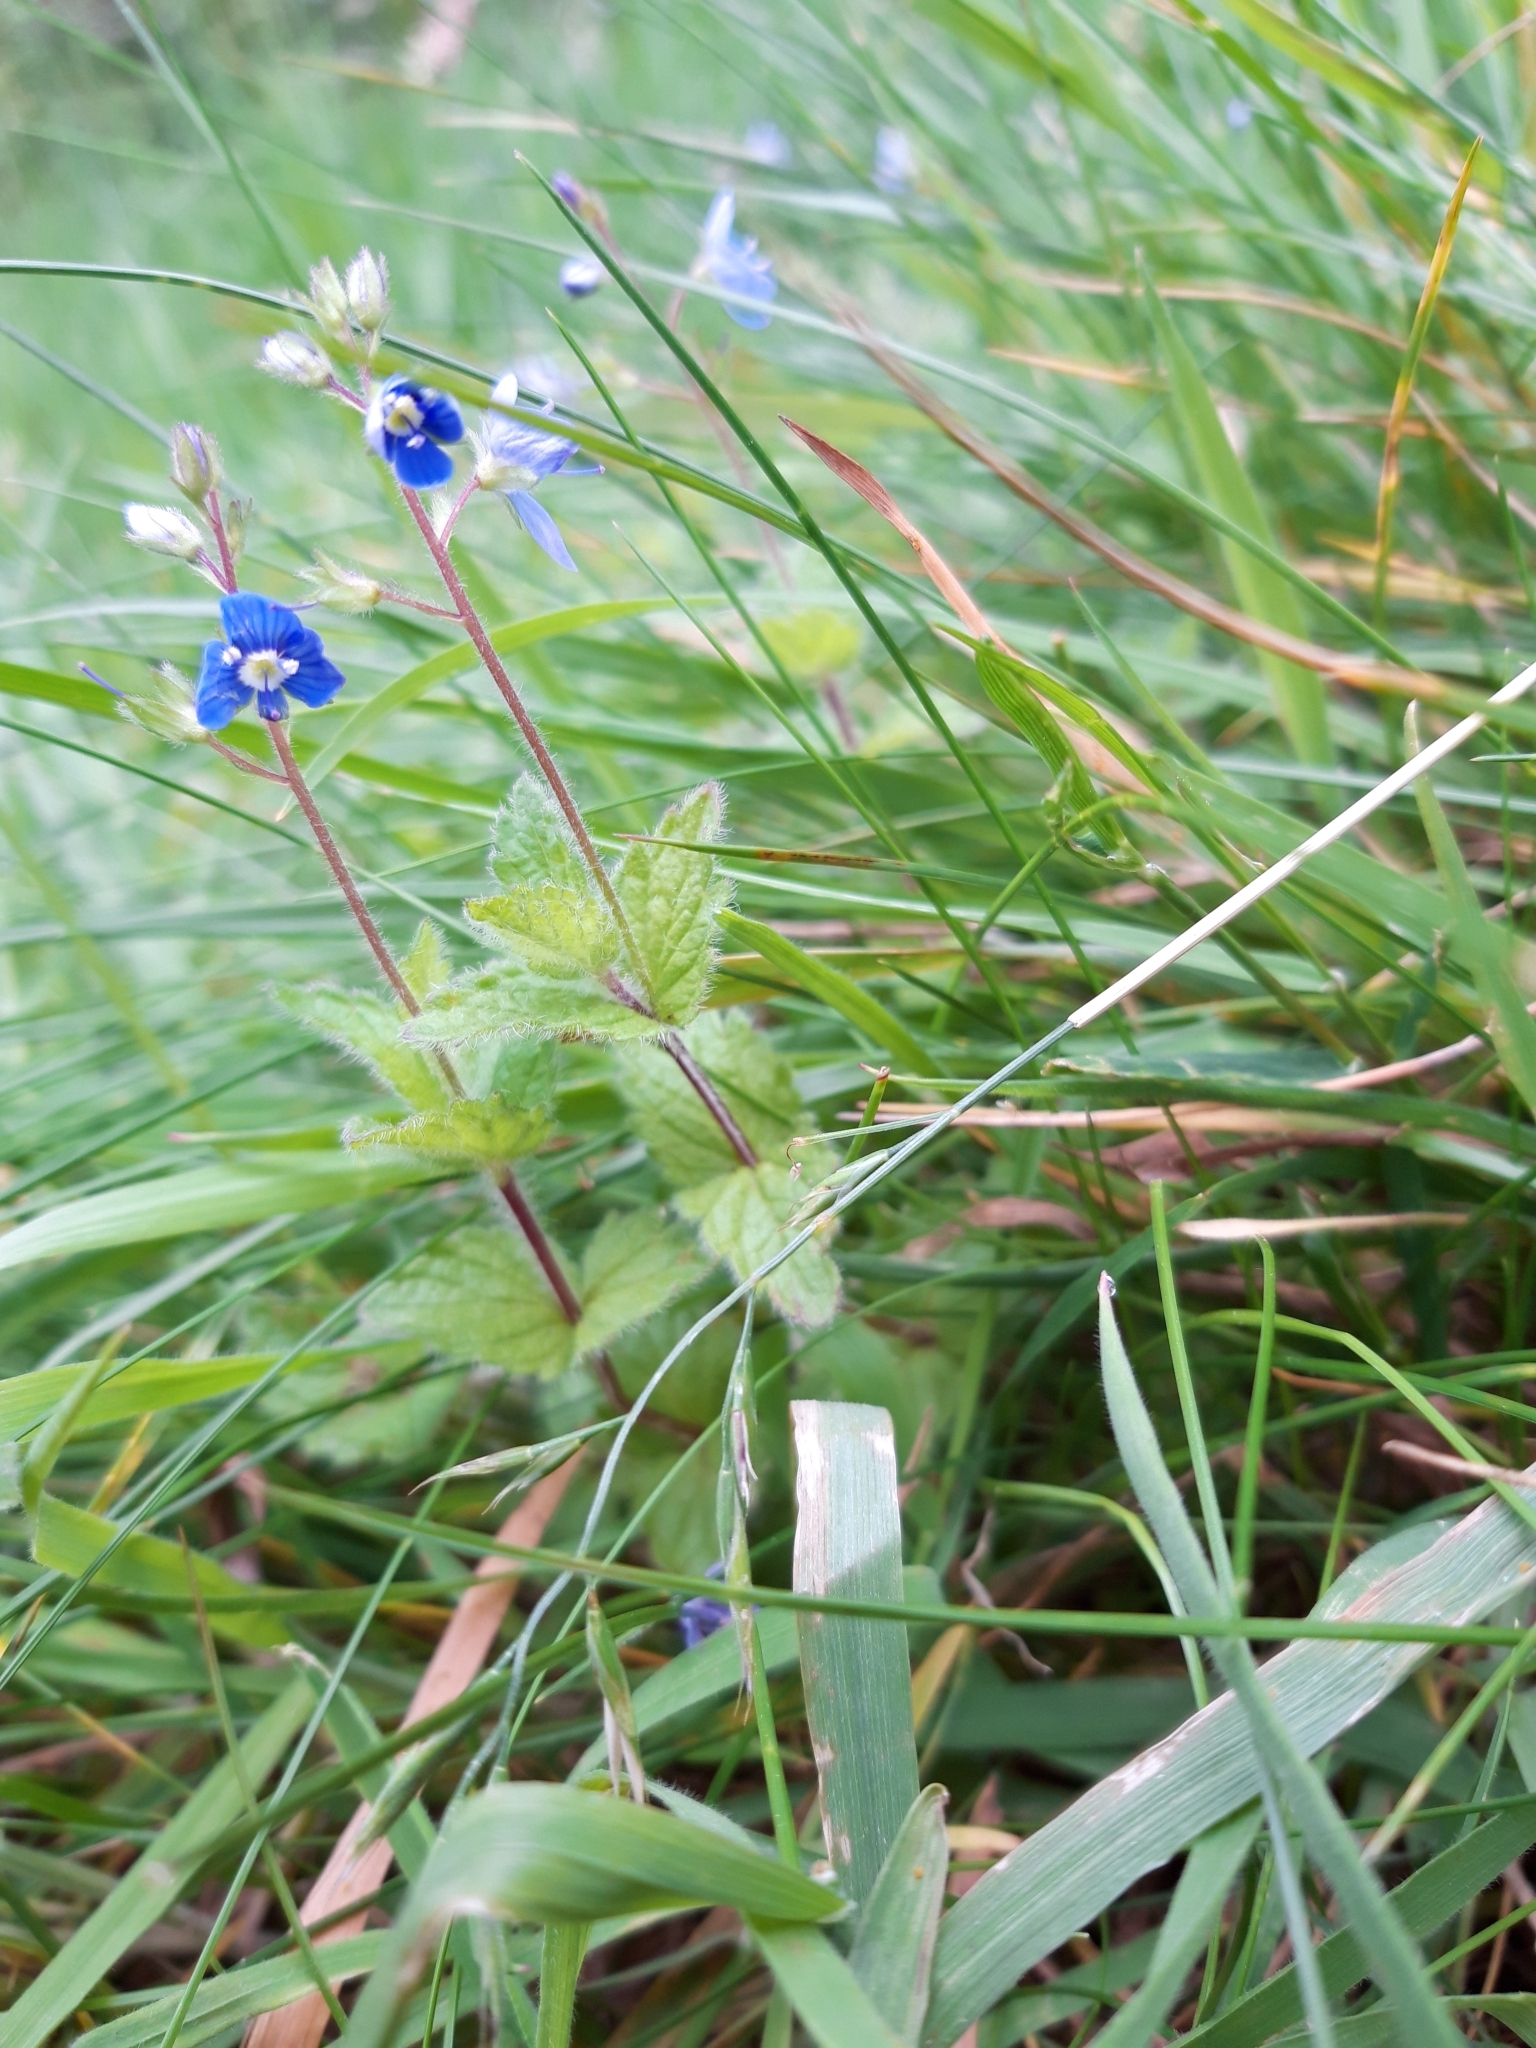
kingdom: Plantae
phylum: Tracheophyta
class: Magnoliopsida
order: Lamiales
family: Plantaginaceae
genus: Veronica
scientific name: Veronica chamaedrys
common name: Germander speedwell
